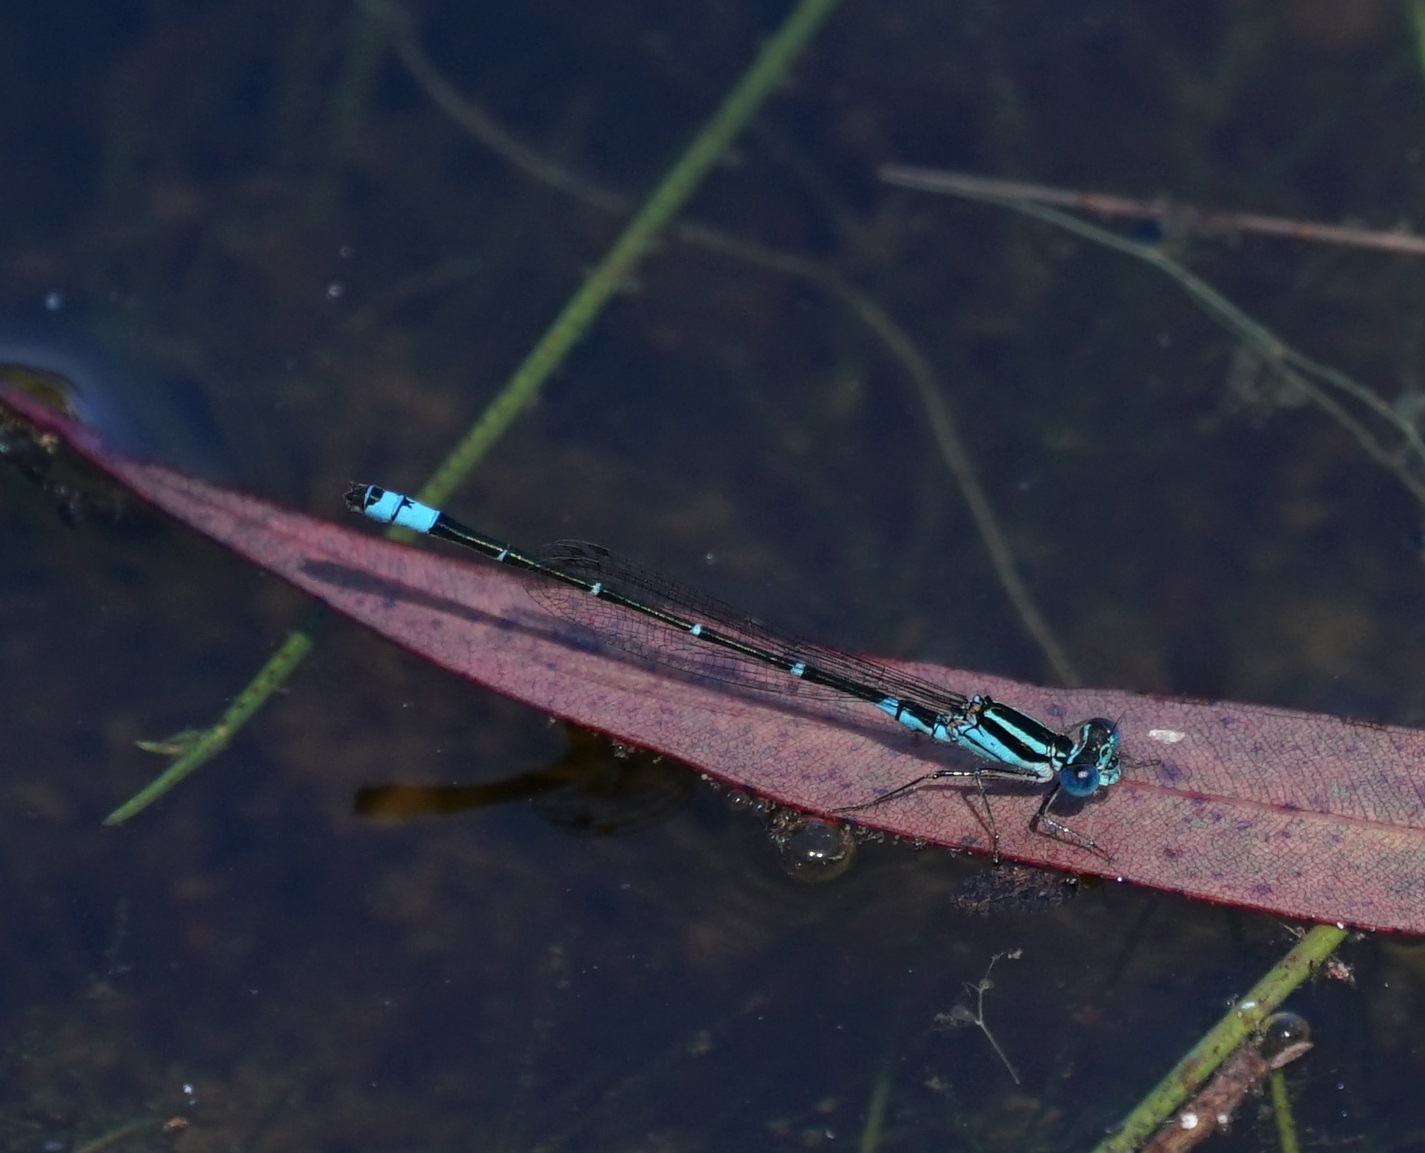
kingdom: Animalia
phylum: Arthropoda
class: Insecta
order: Odonata
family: Coenagrionidae
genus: Austroagrion
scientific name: Austroagrion watsoni
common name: Eastern billabongfly
